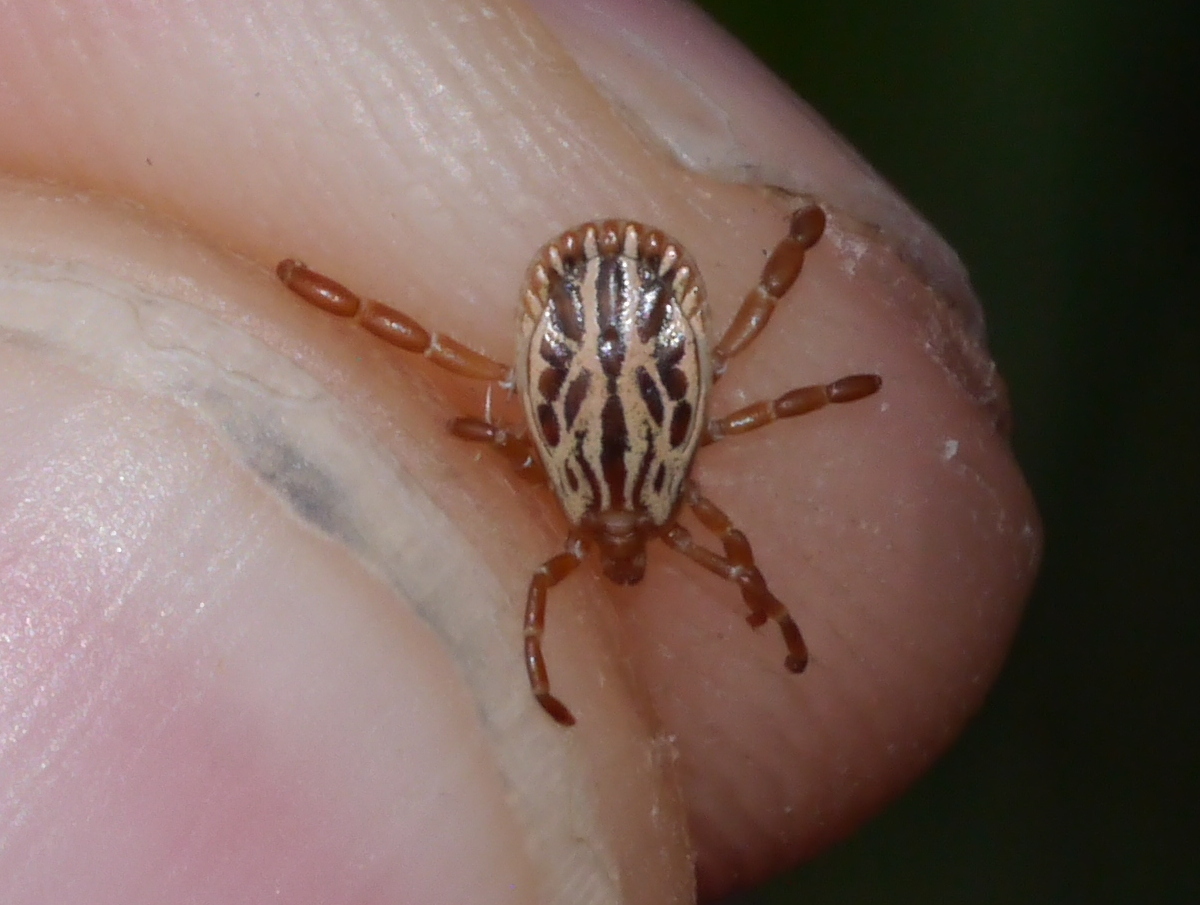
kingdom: Animalia
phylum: Arthropoda
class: Arachnida
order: Ixodida
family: Ixodidae
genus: Amblyomma
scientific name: Amblyomma triste
